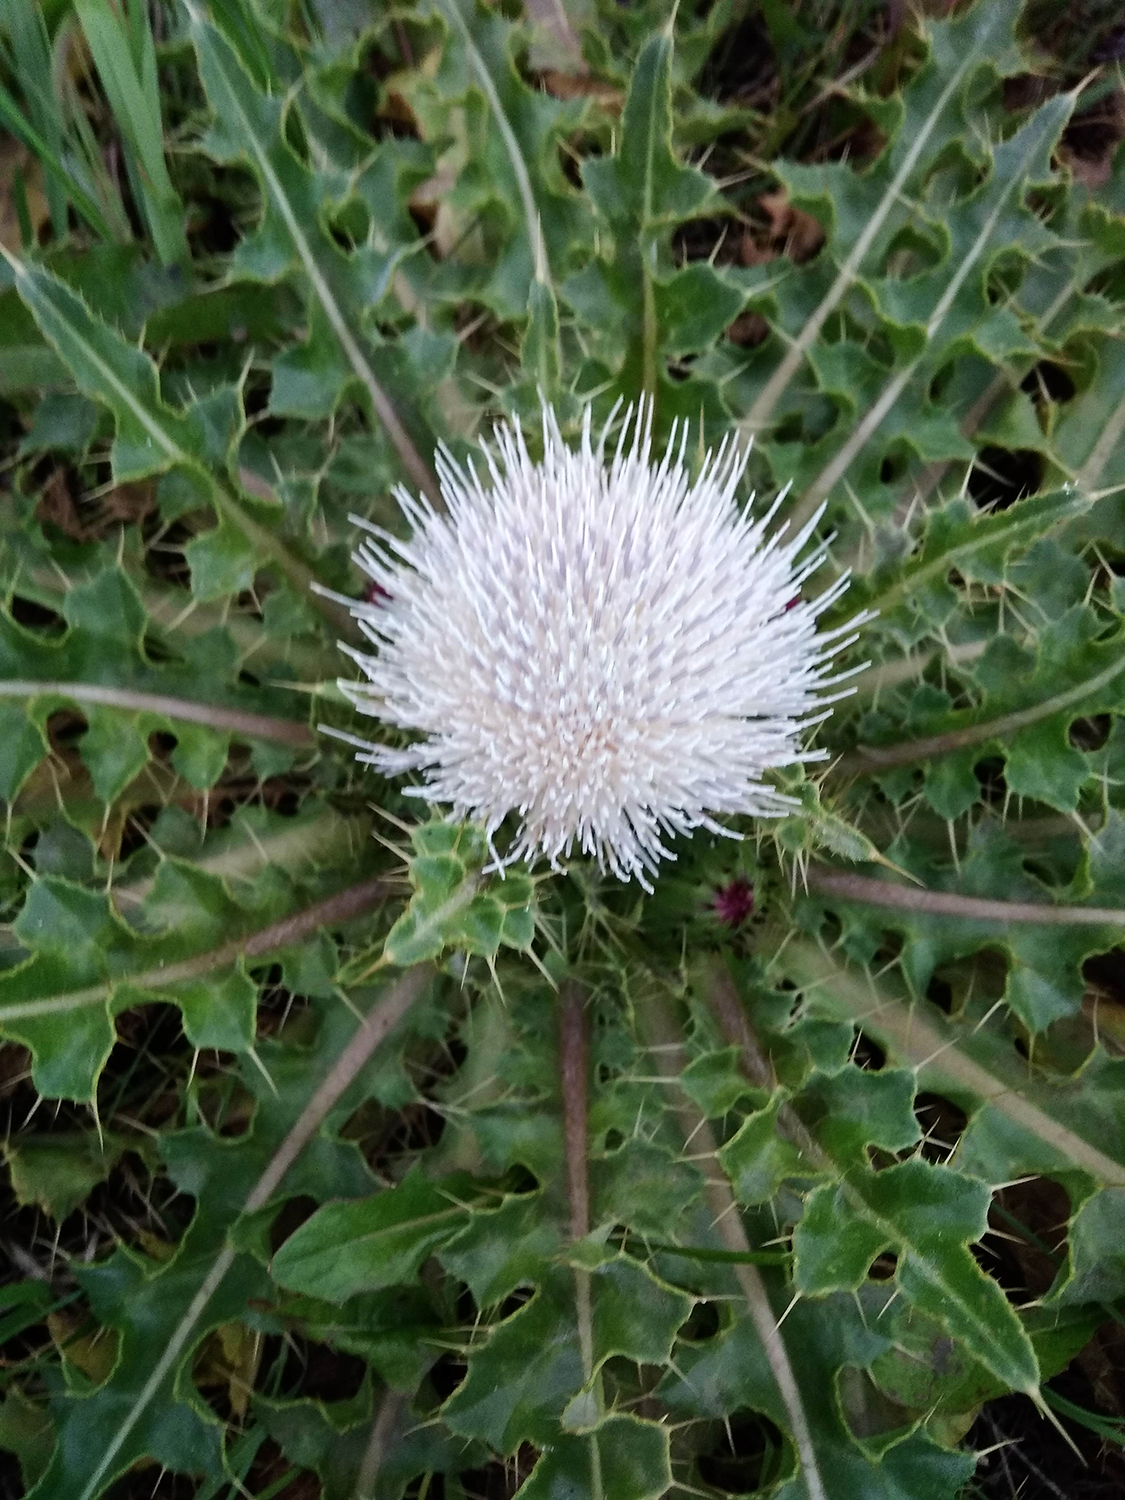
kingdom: Plantae
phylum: Tracheophyta
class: Magnoliopsida
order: Asterales
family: Asteraceae
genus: Cirsium
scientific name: Cirsium esculentum
